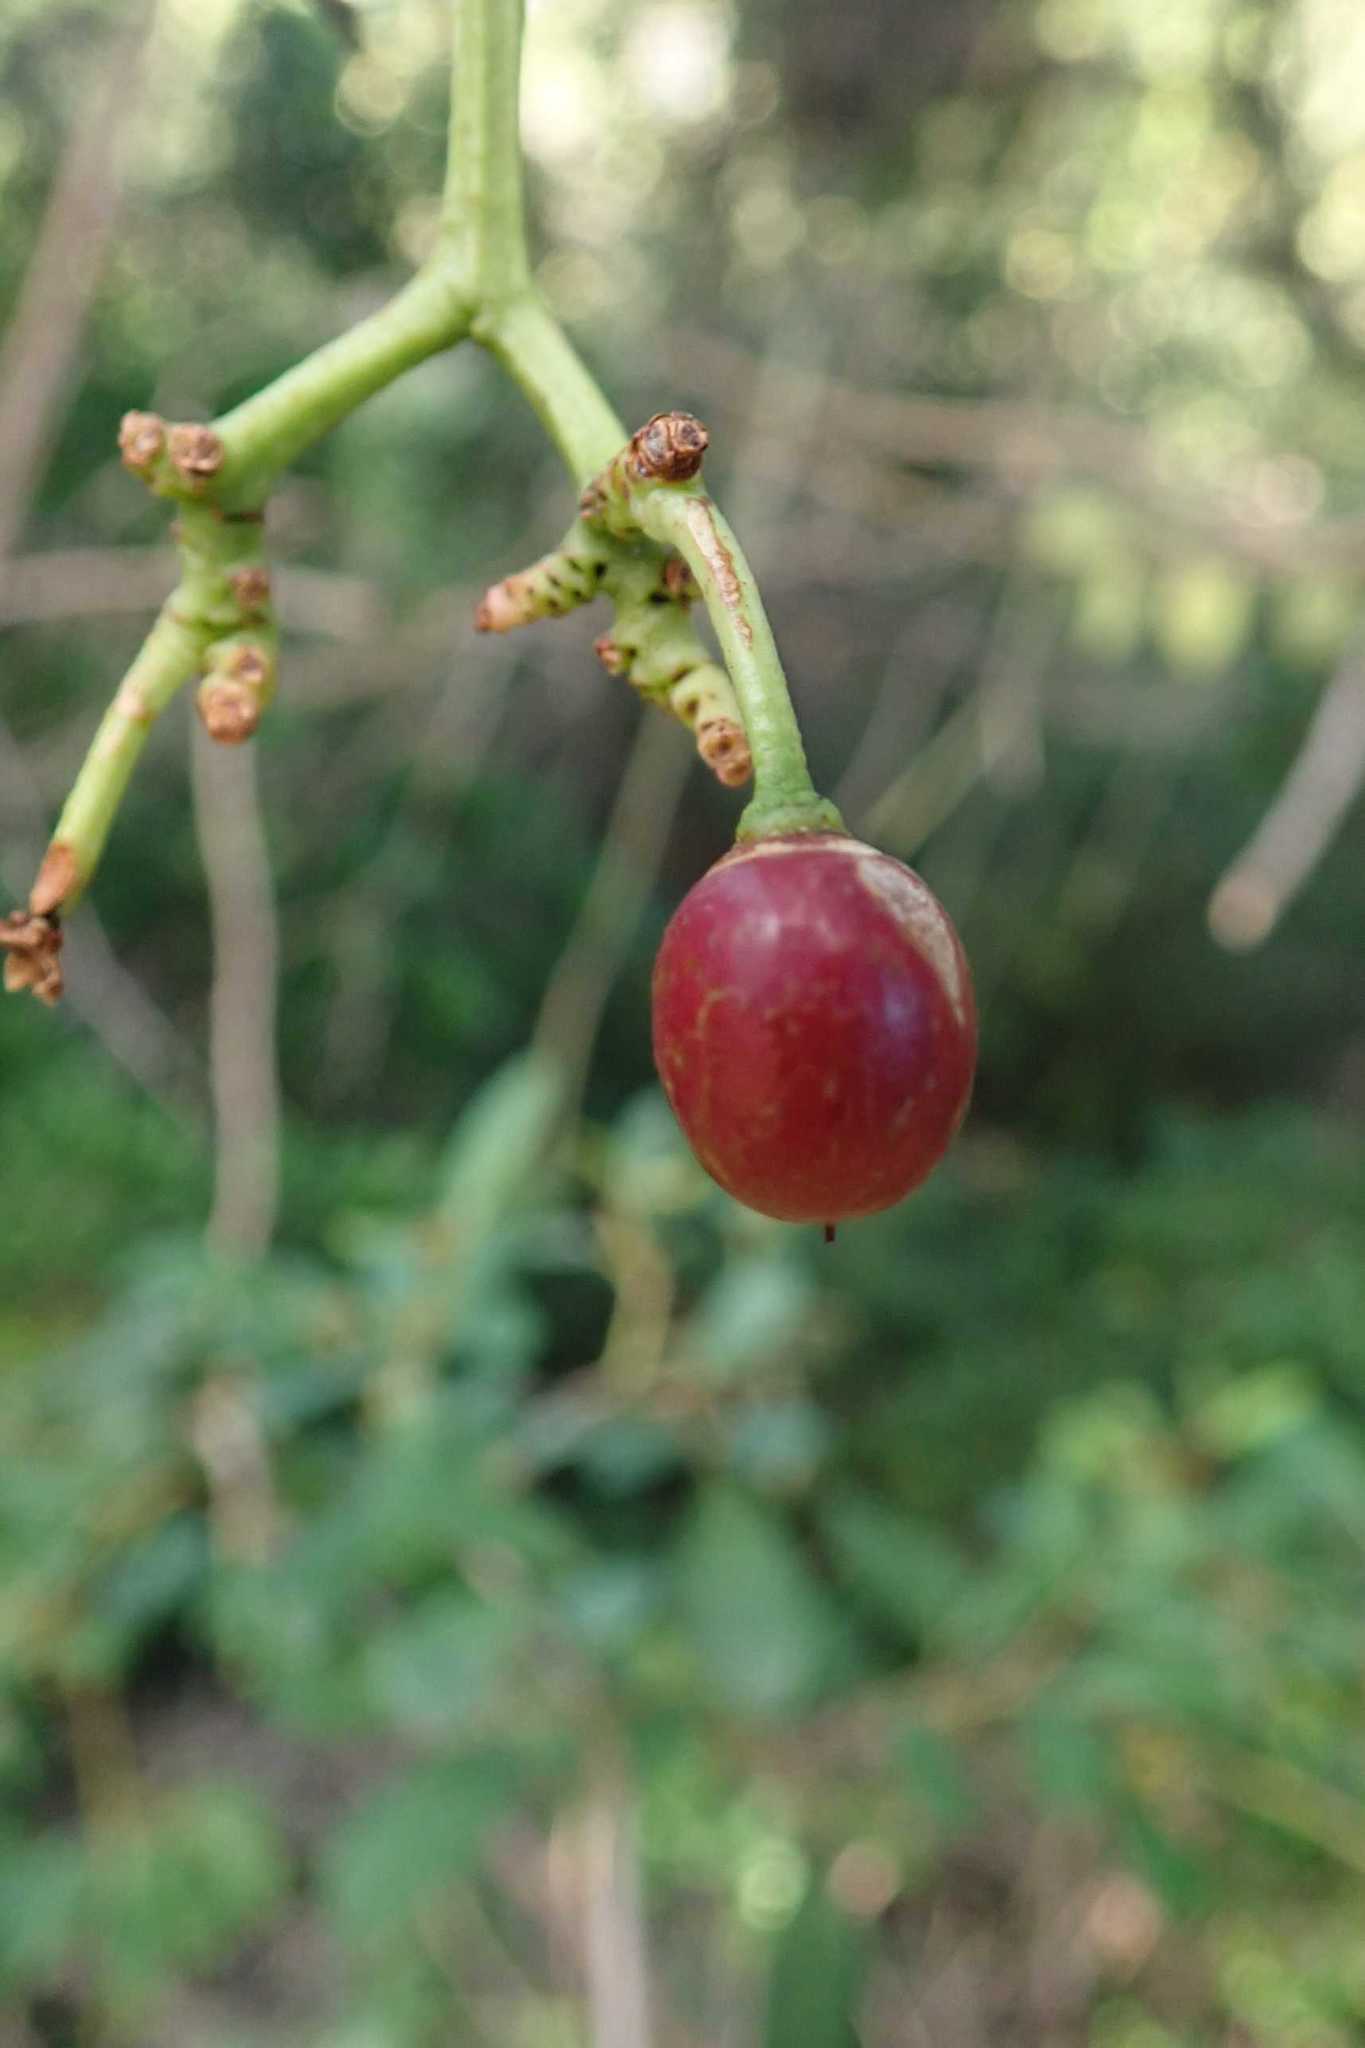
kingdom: Plantae
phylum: Tracheophyta
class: Magnoliopsida
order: Vitales
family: Vitaceae
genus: Rhoicissus
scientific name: Rhoicissus revoilii
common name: Bushveld grape
